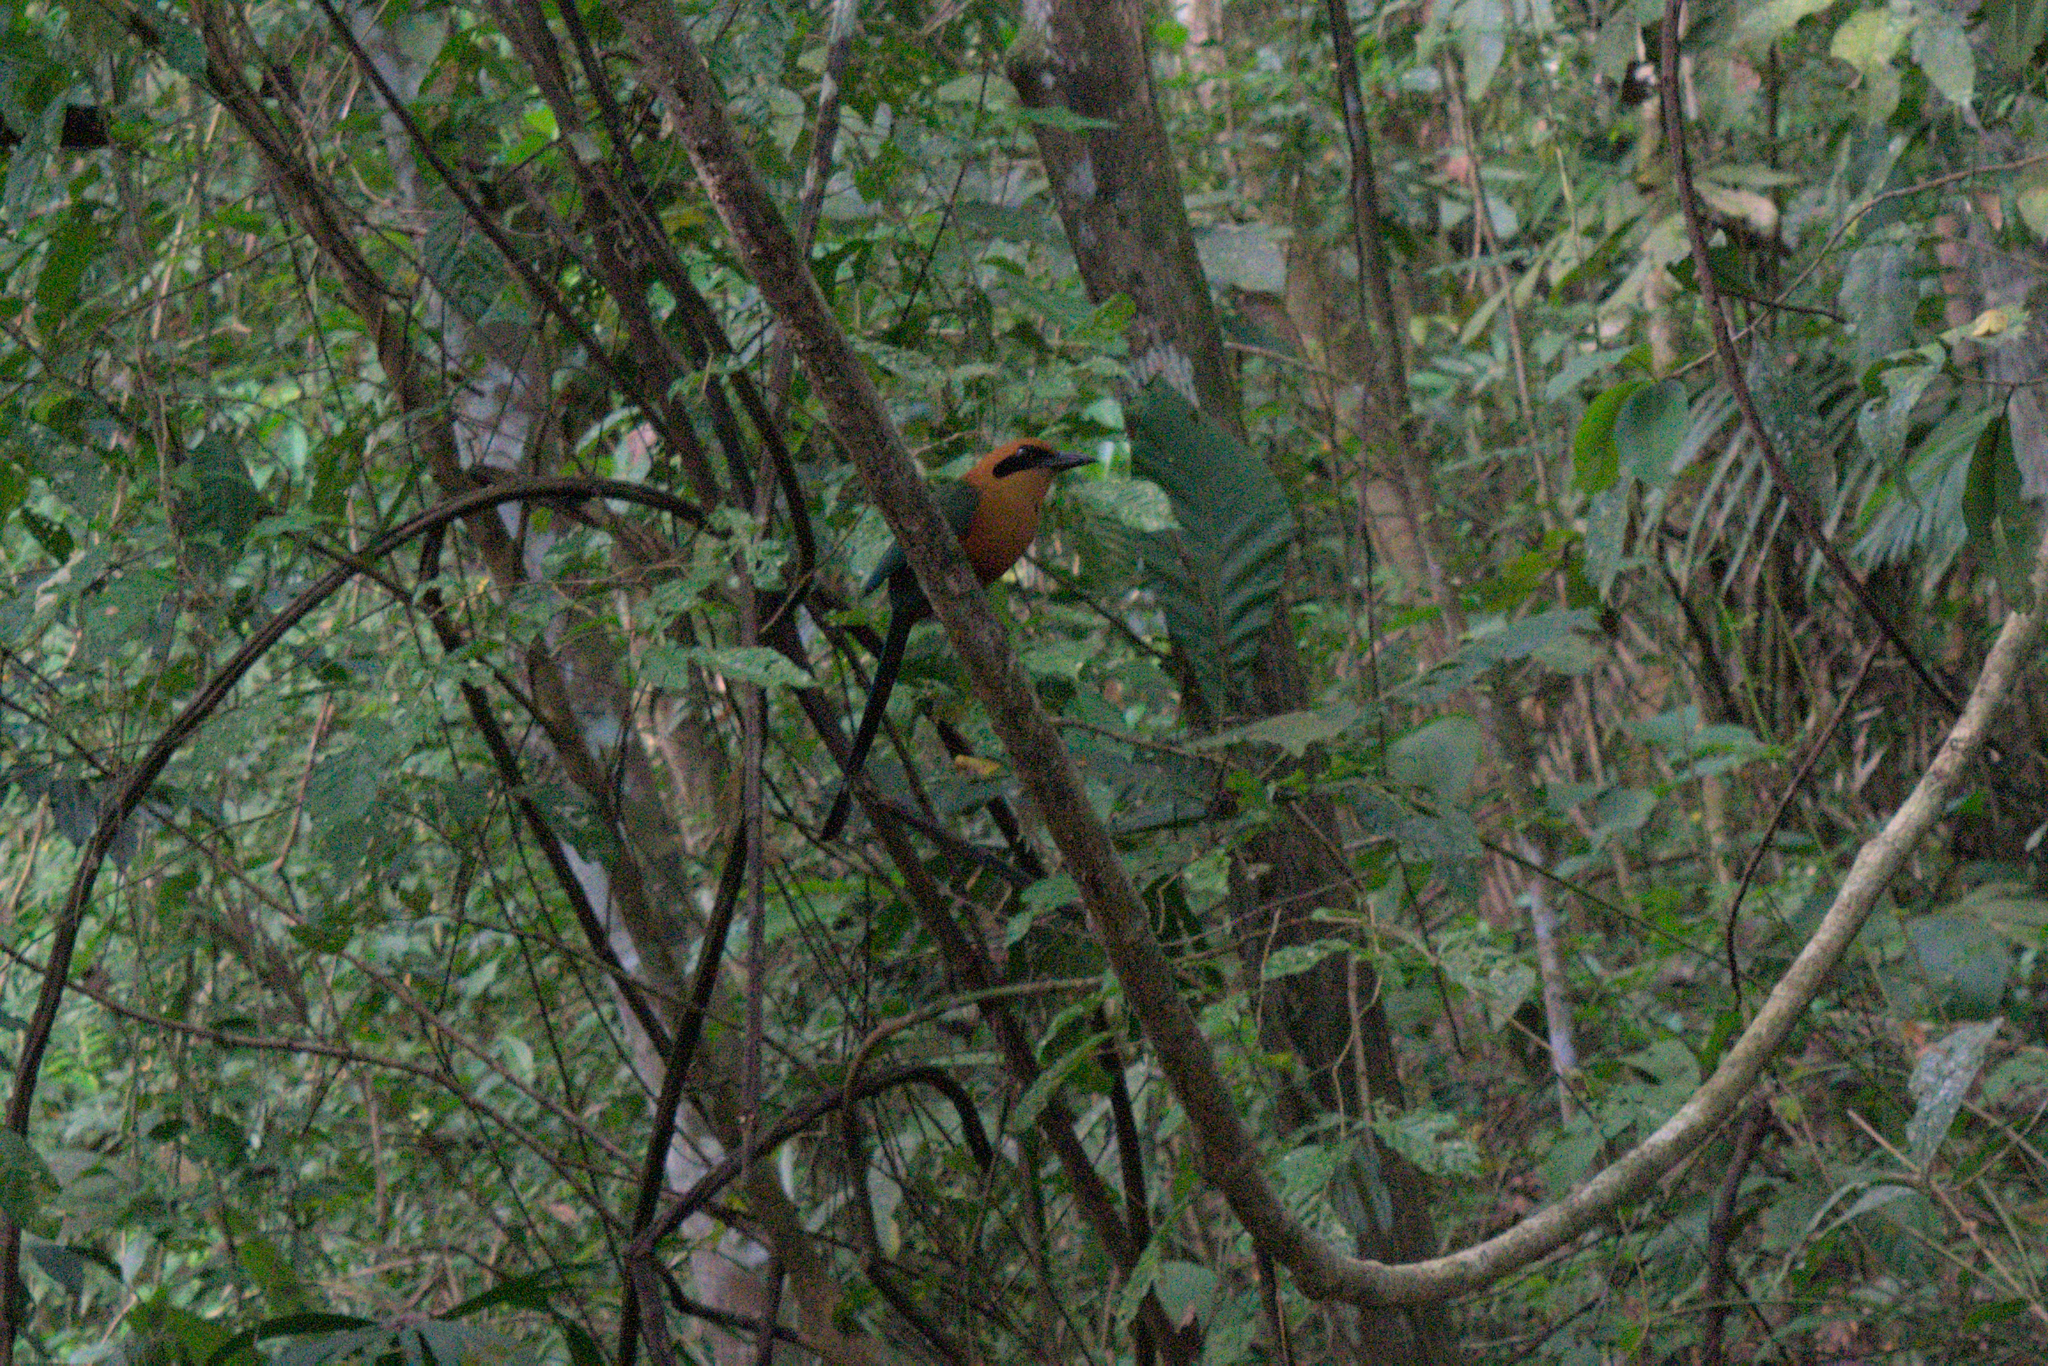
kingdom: Animalia
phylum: Chordata
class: Aves
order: Coraciiformes
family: Momotidae
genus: Baryphthengus
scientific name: Baryphthengus martii
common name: Rufous motmot
